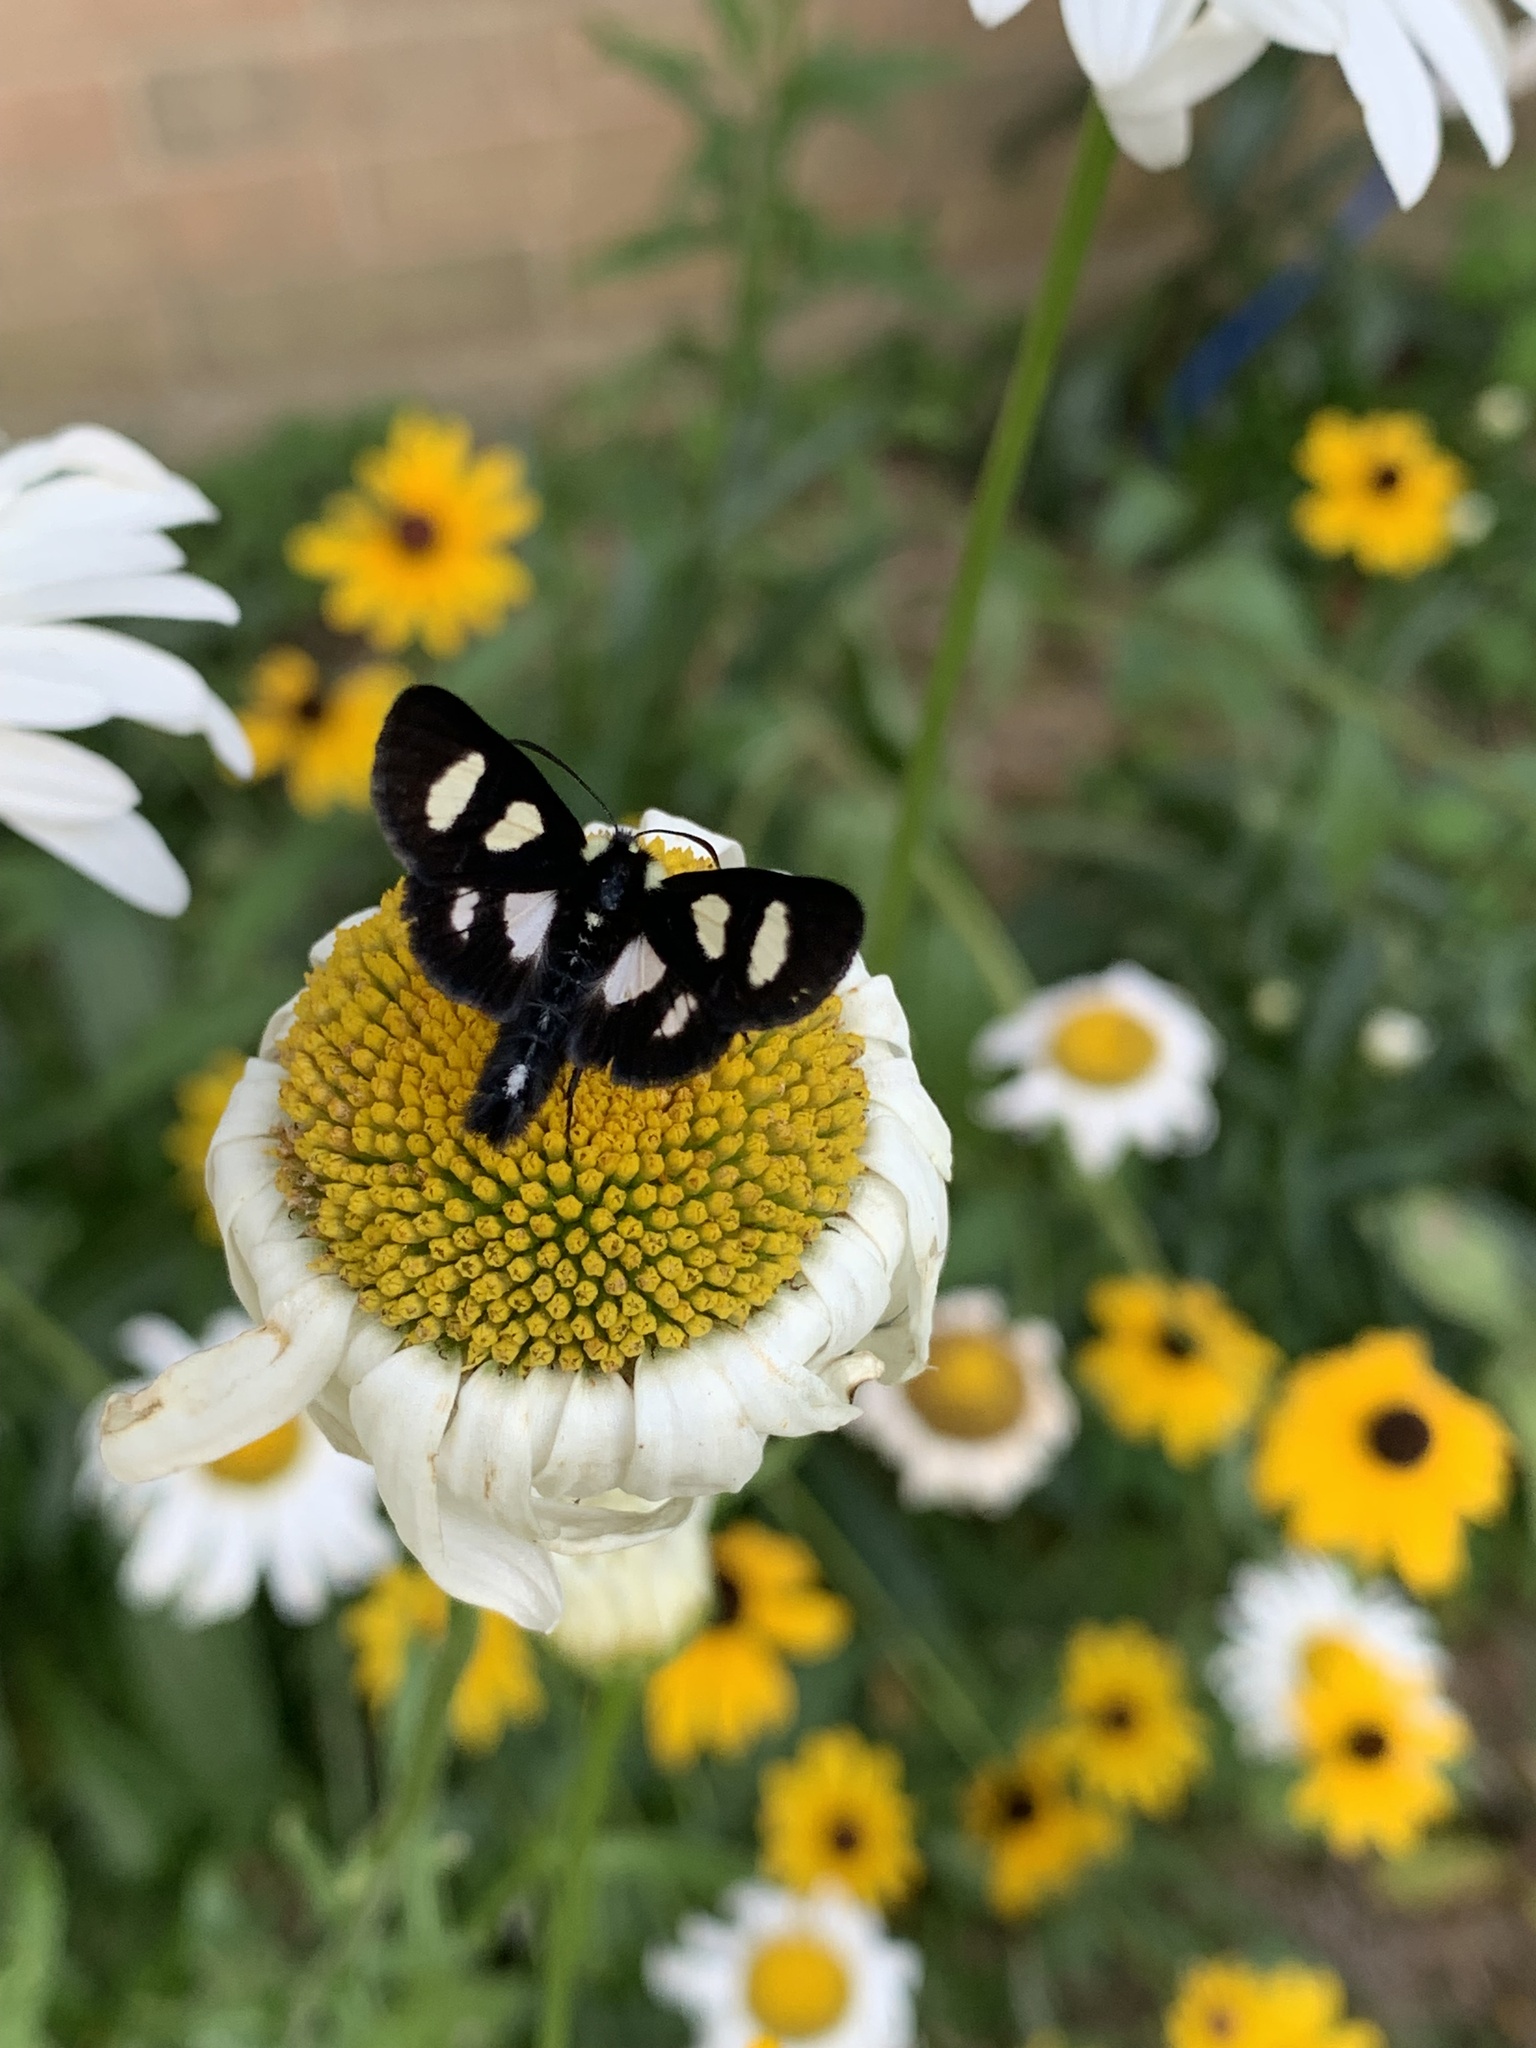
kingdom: Animalia
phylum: Arthropoda
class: Insecta
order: Lepidoptera
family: Noctuidae
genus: Alypia
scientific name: Alypia octomaculata
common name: Eight-spotted forester
